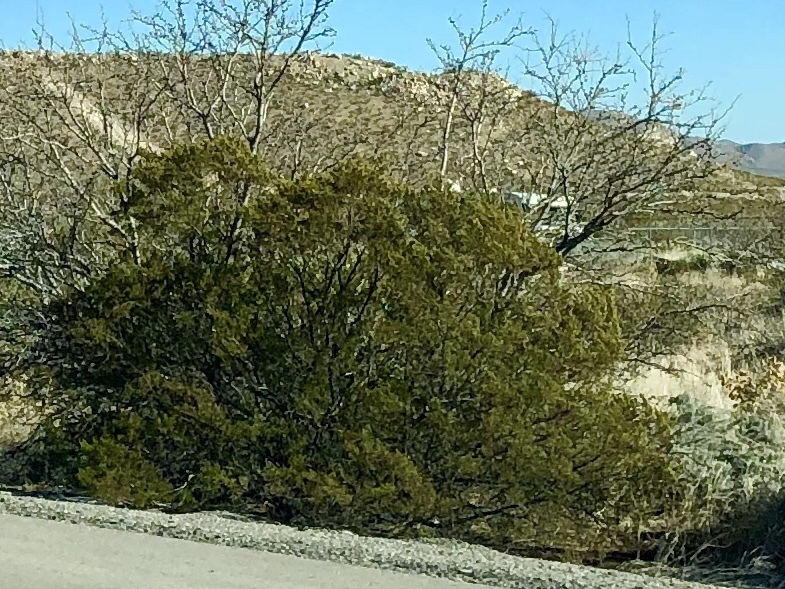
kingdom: Plantae
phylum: Tracheophyta
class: Magnoliopsida
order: Zygophyllales
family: Zygophyllaceae
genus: Larrea
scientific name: Larrea tridentata
